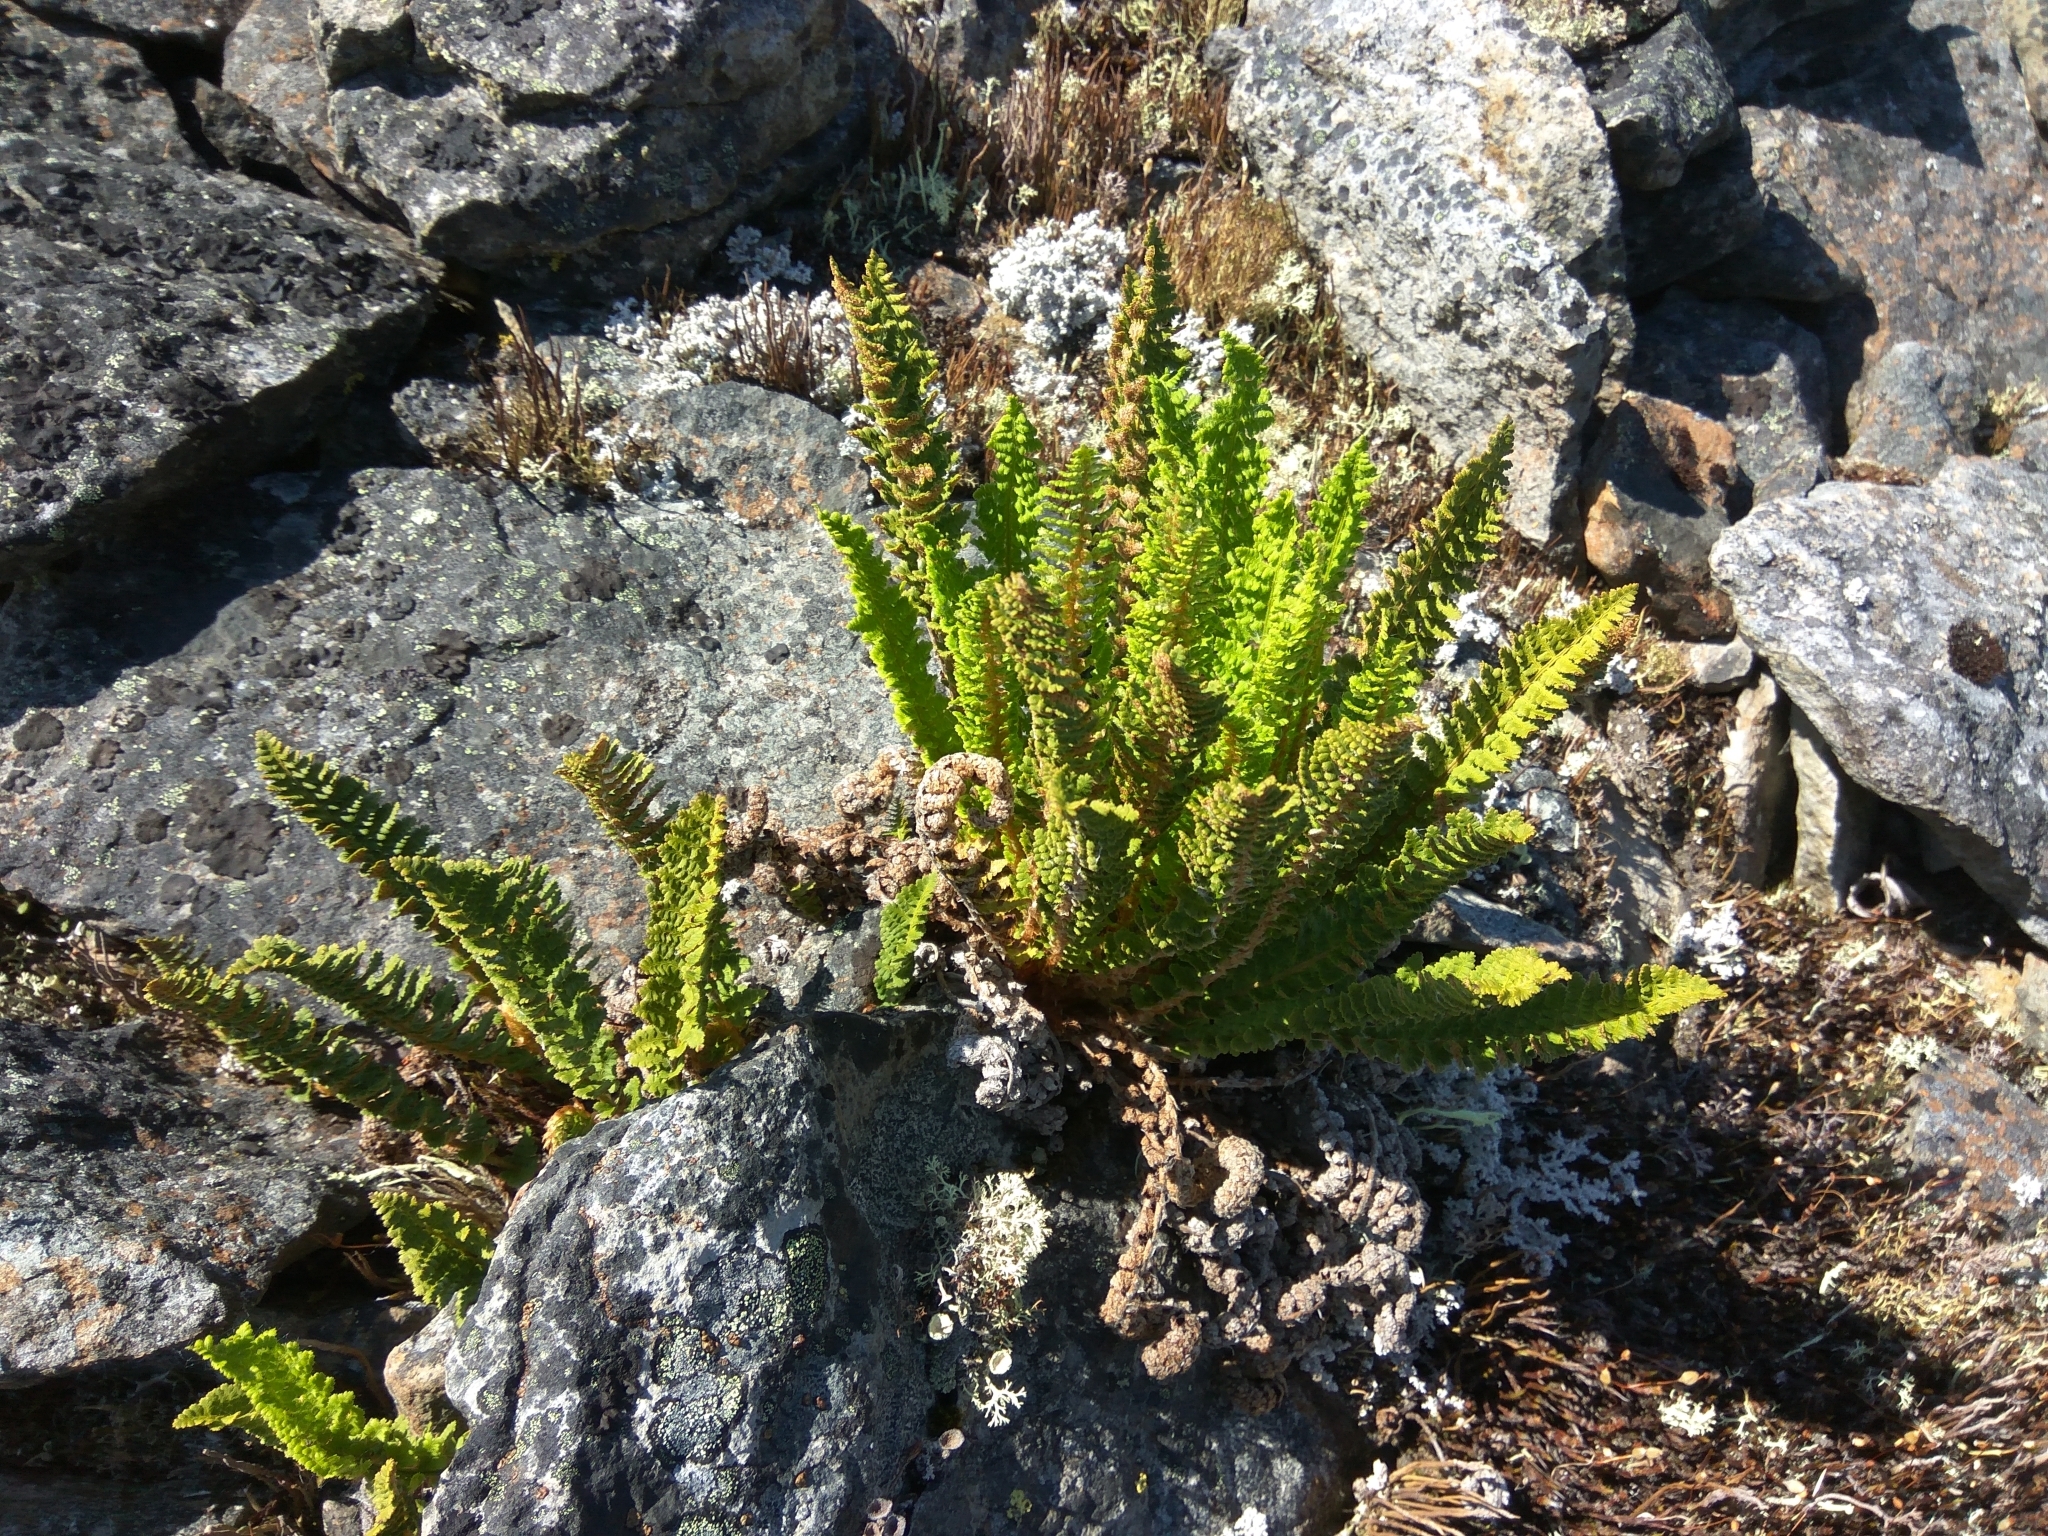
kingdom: Plantae
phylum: Tracheophyta
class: Polypodiopsida
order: Polypodiales
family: Dryopteridaceae
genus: Dryopteris
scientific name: Dryopteris fragrans
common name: Fragrant wood fern
